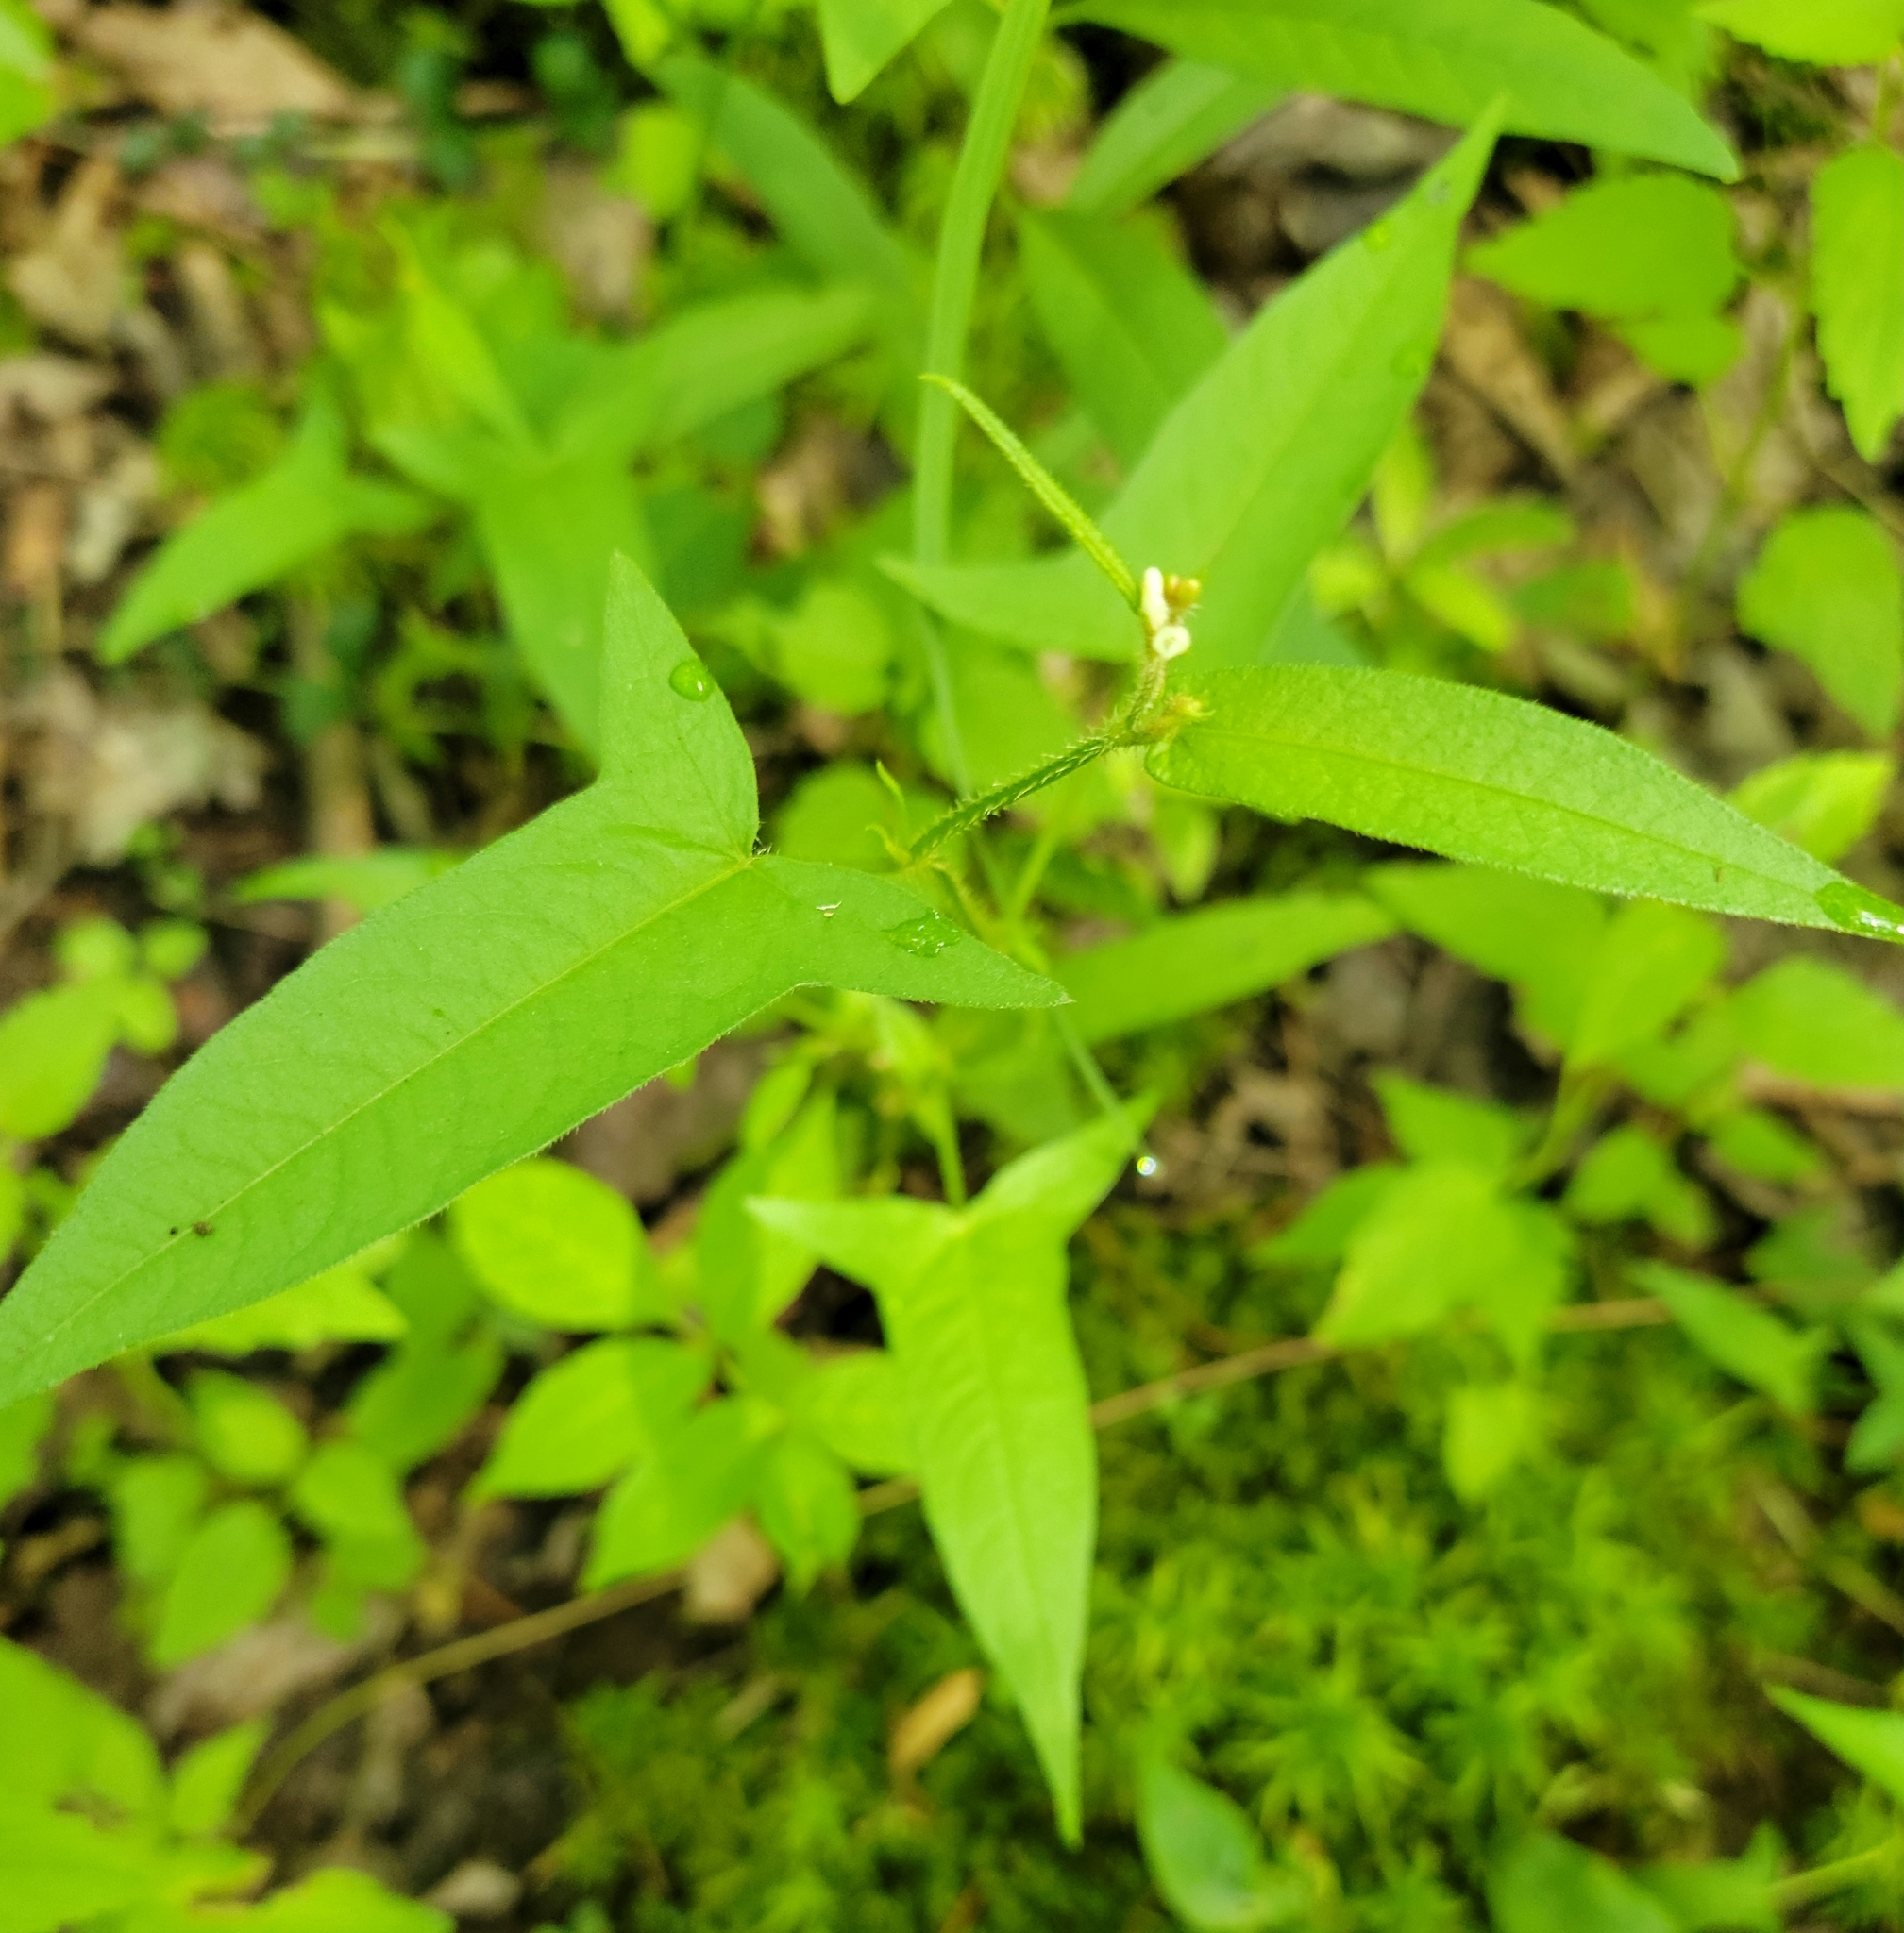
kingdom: Plantae
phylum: Tracheophyta
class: Magnoliopsida
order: Caryophyllales
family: Polygonaceae
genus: Persicaria
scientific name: Persicaria arifolia
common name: Halberd-leaved tear-thumb
